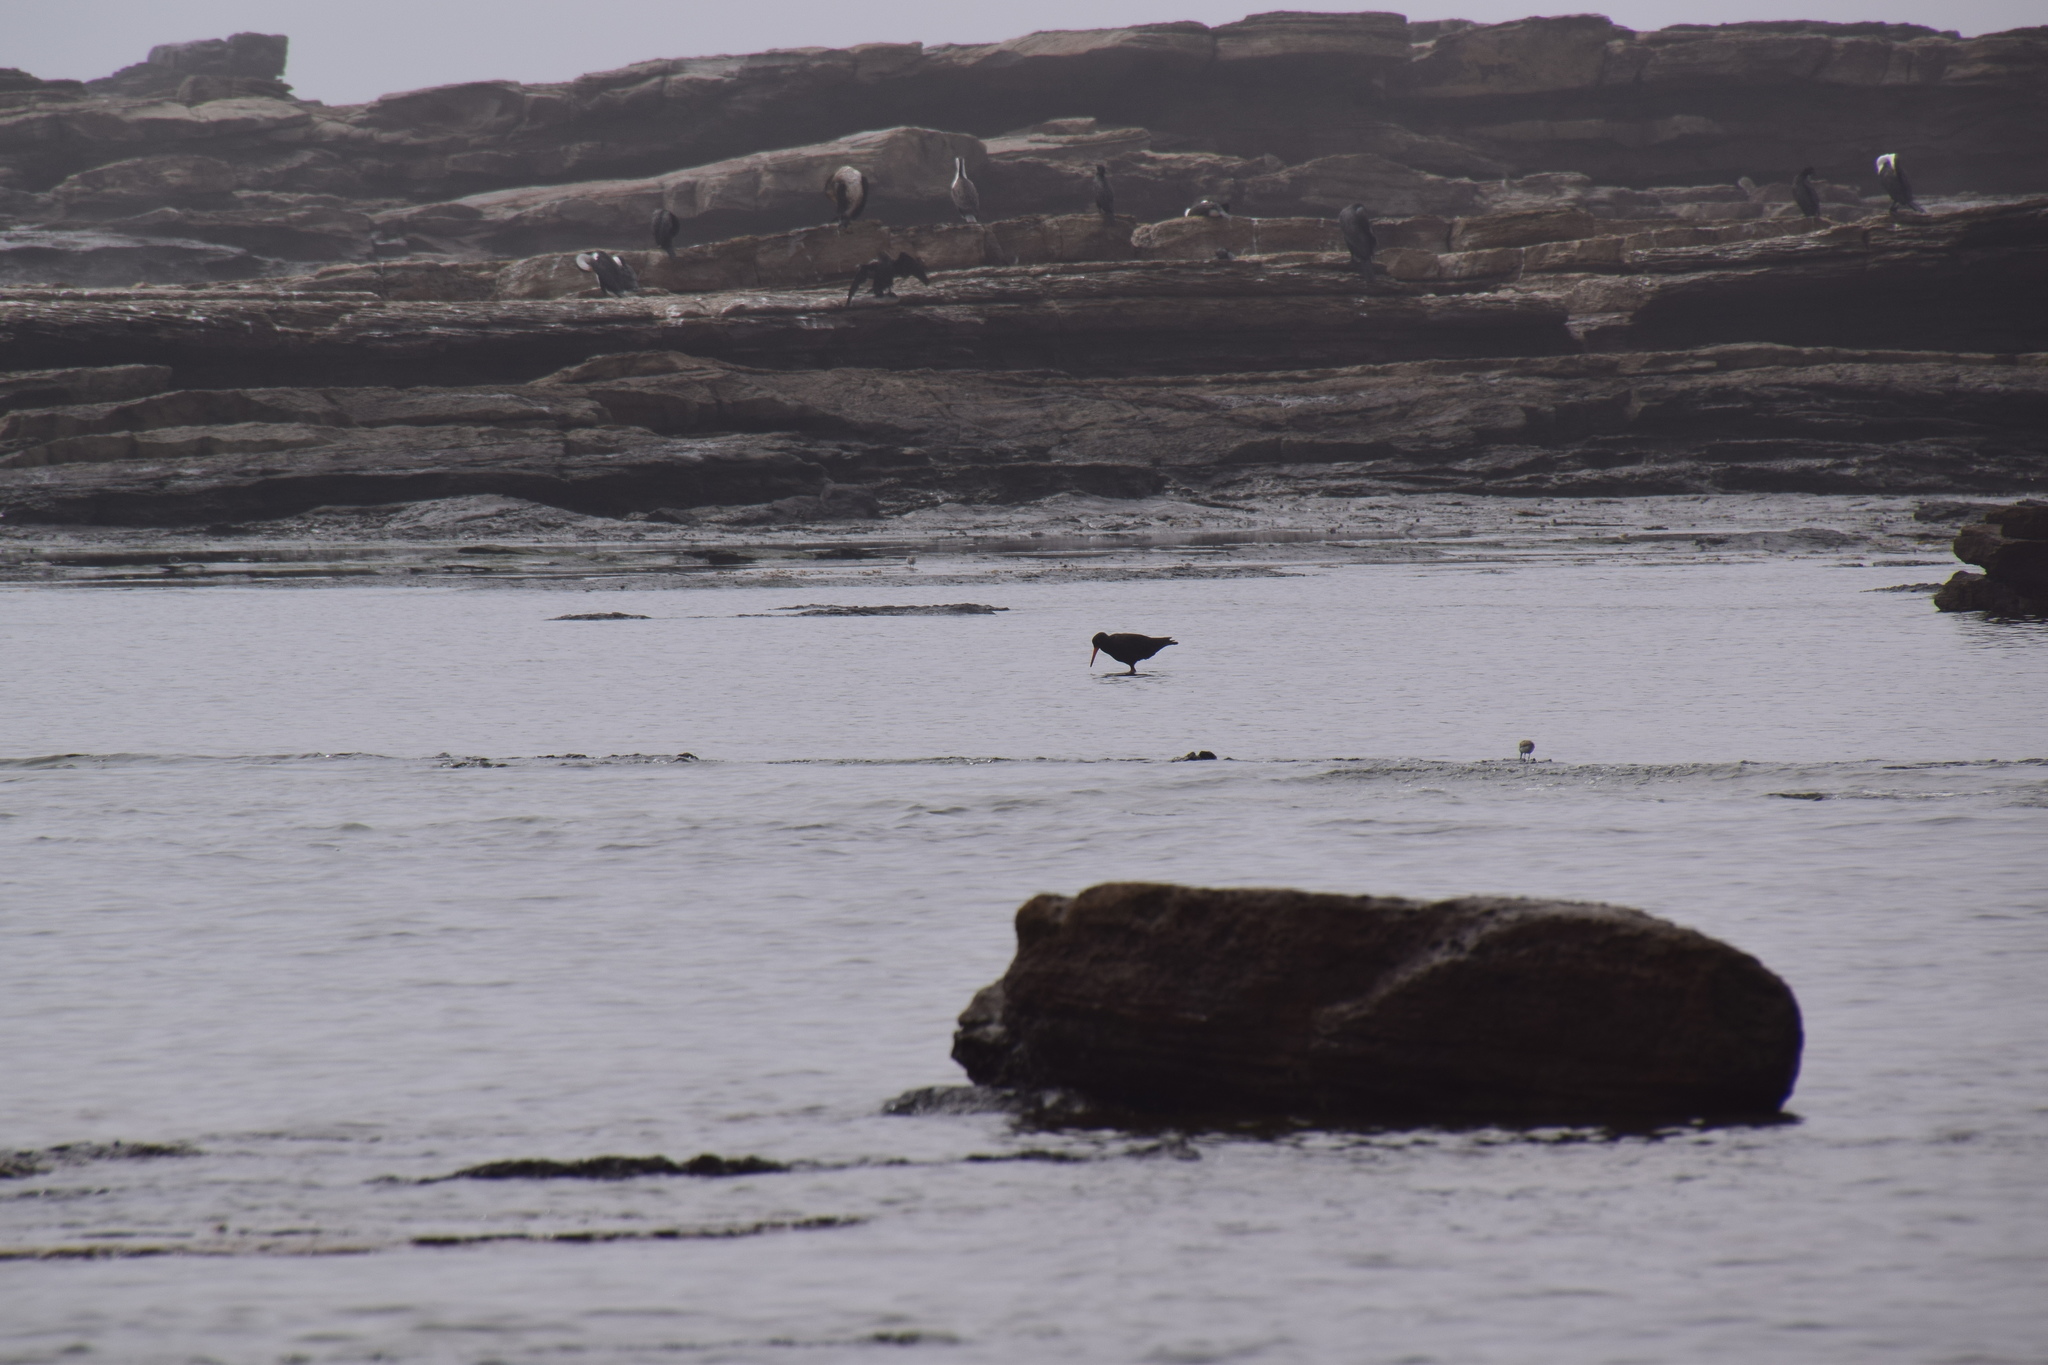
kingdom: Animalia
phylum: Chordata
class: Aves
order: Charadriiformes
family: Haematopodidae
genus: Haematopus
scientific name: Haematopus fuliginosus
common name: Sooty oystercatcher
